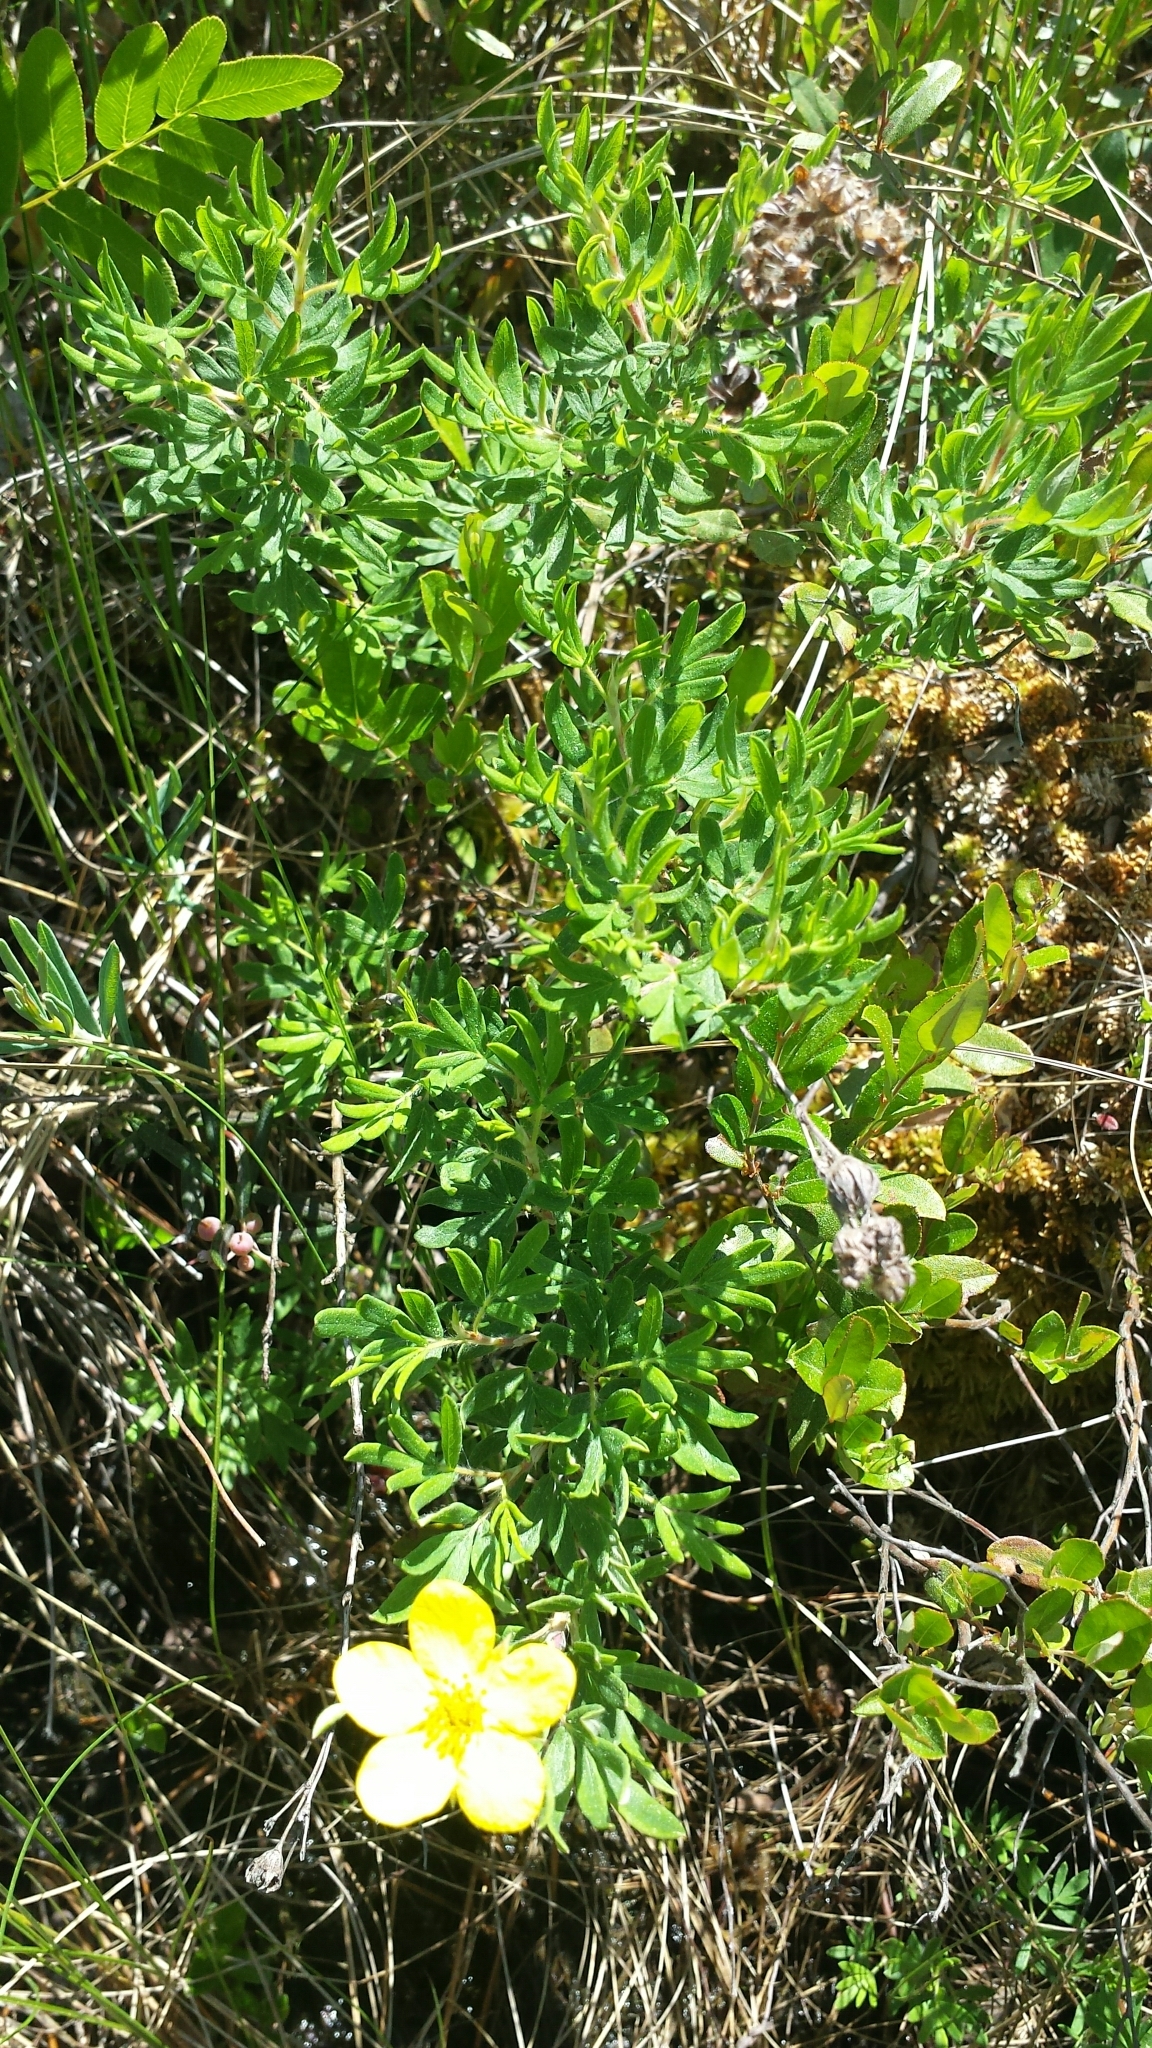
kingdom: Plantae
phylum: Tracheophyta
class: Magnoliopsida
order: Rosales
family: Rosaceae
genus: Dasiphora
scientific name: Dasiphora fruticosa
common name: Shrubby cinquefoil
